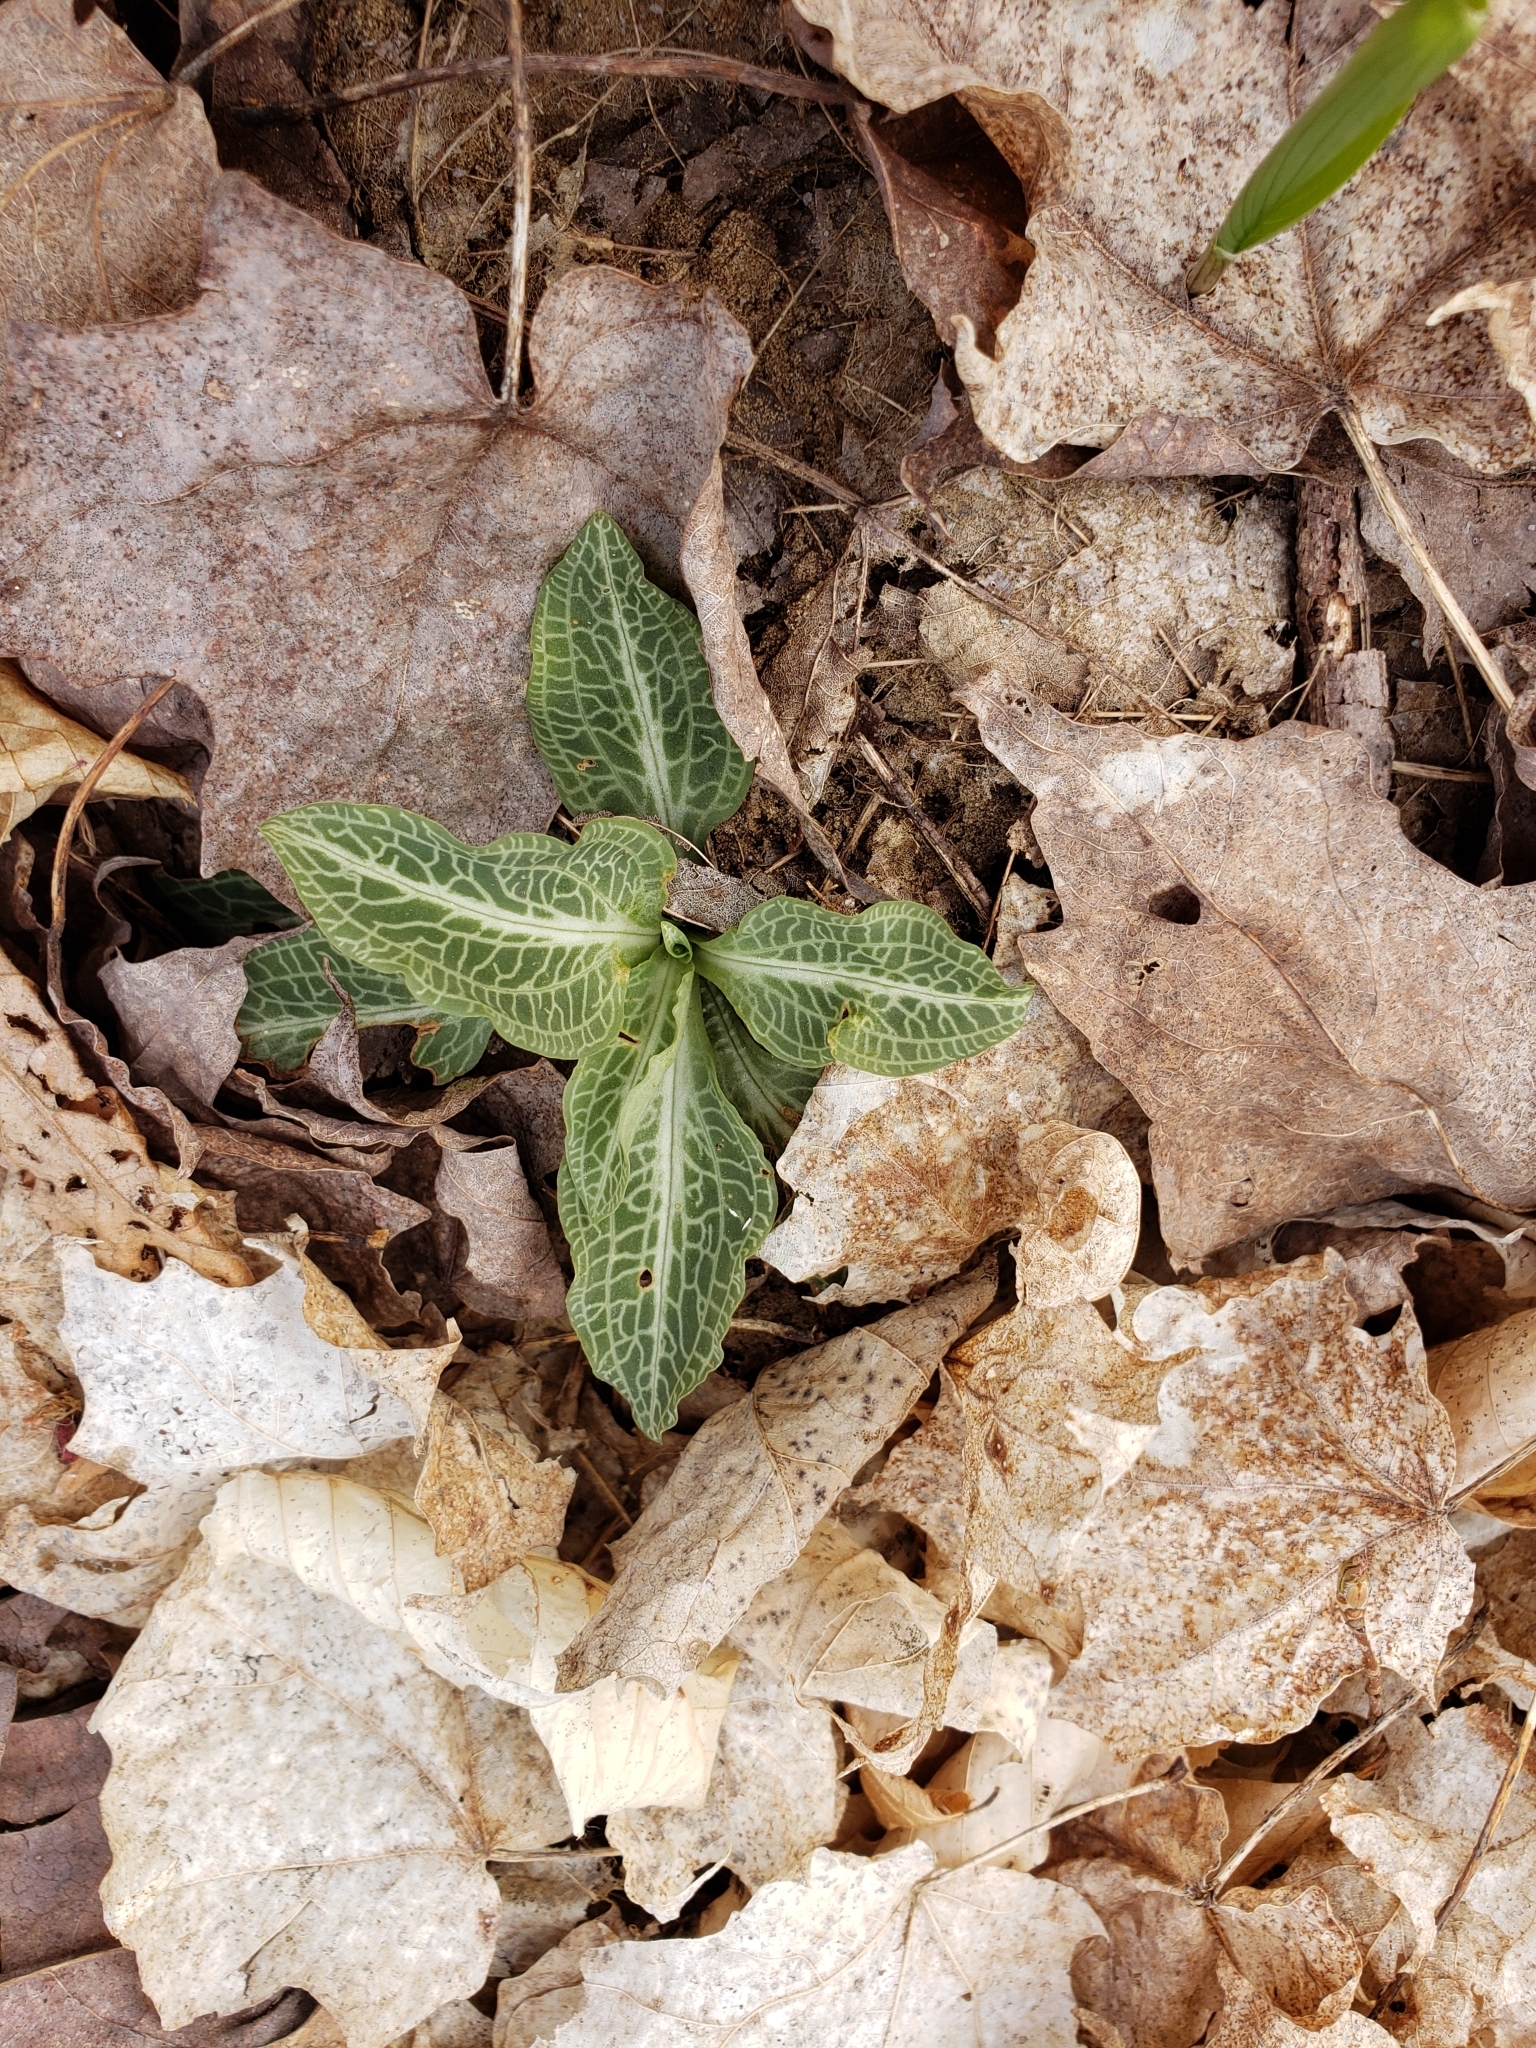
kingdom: Plantae
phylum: Tracheophyta
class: Liliopsida
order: Asparagales
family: Orchidaceae
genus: Goodyera
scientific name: Goodyera pubescens
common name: Downy rattlesnake-plantain
